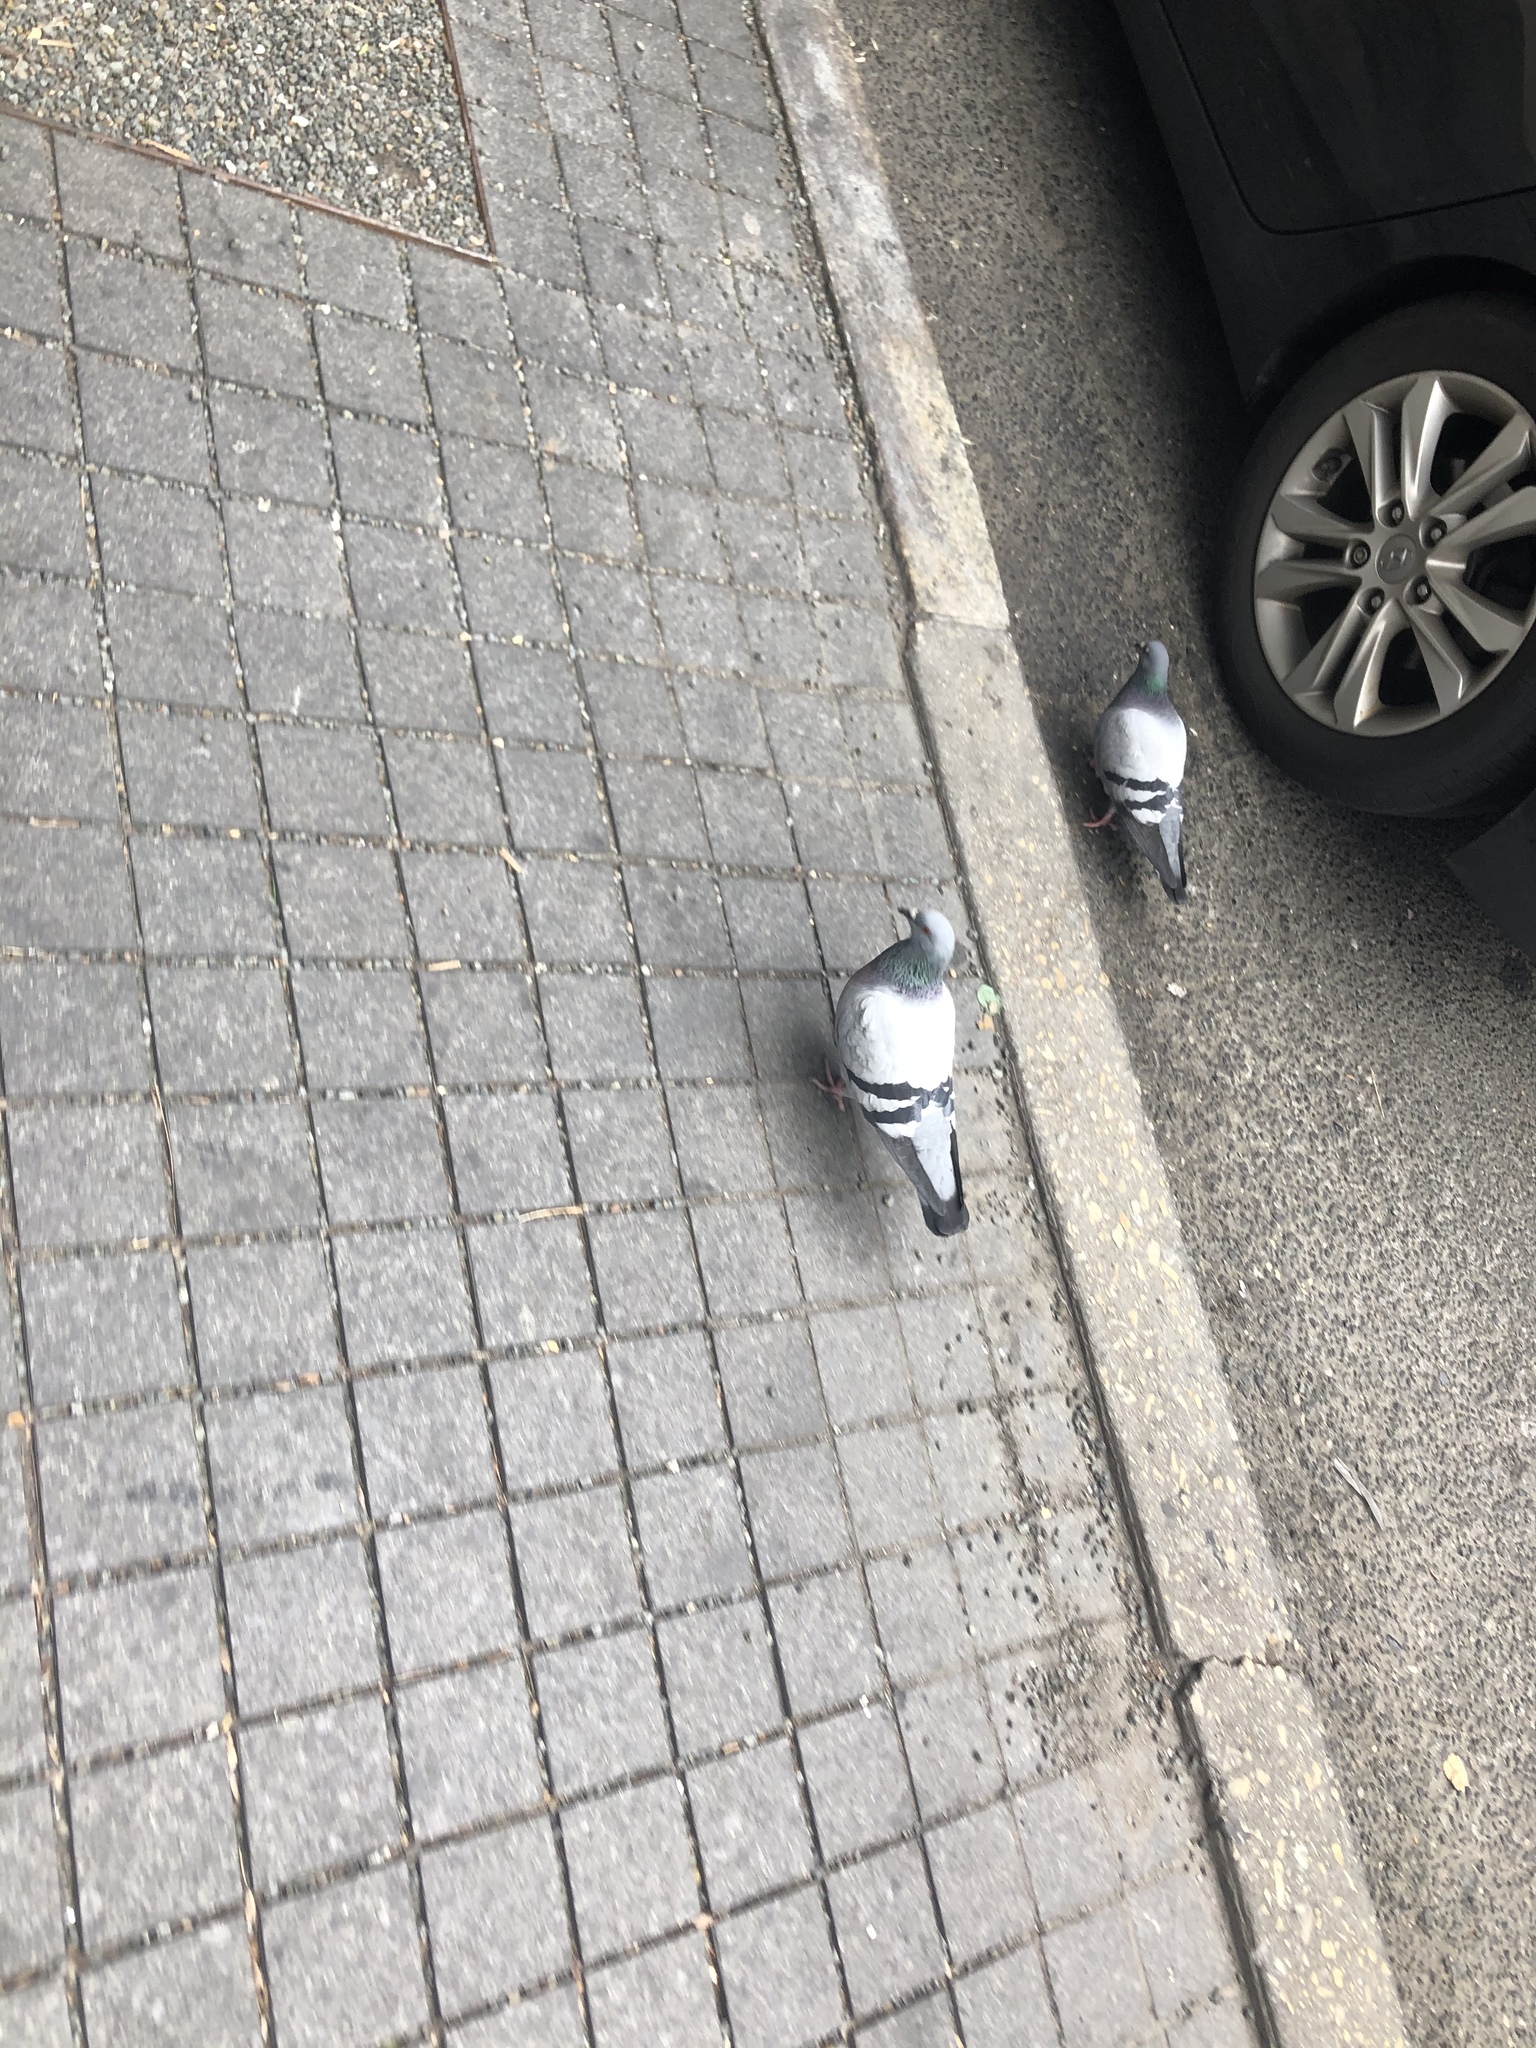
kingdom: Animalia
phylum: Chordata
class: Aves
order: Columbiformes
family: Columbidae
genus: Columba
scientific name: Columba livia
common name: Rock pigeon
